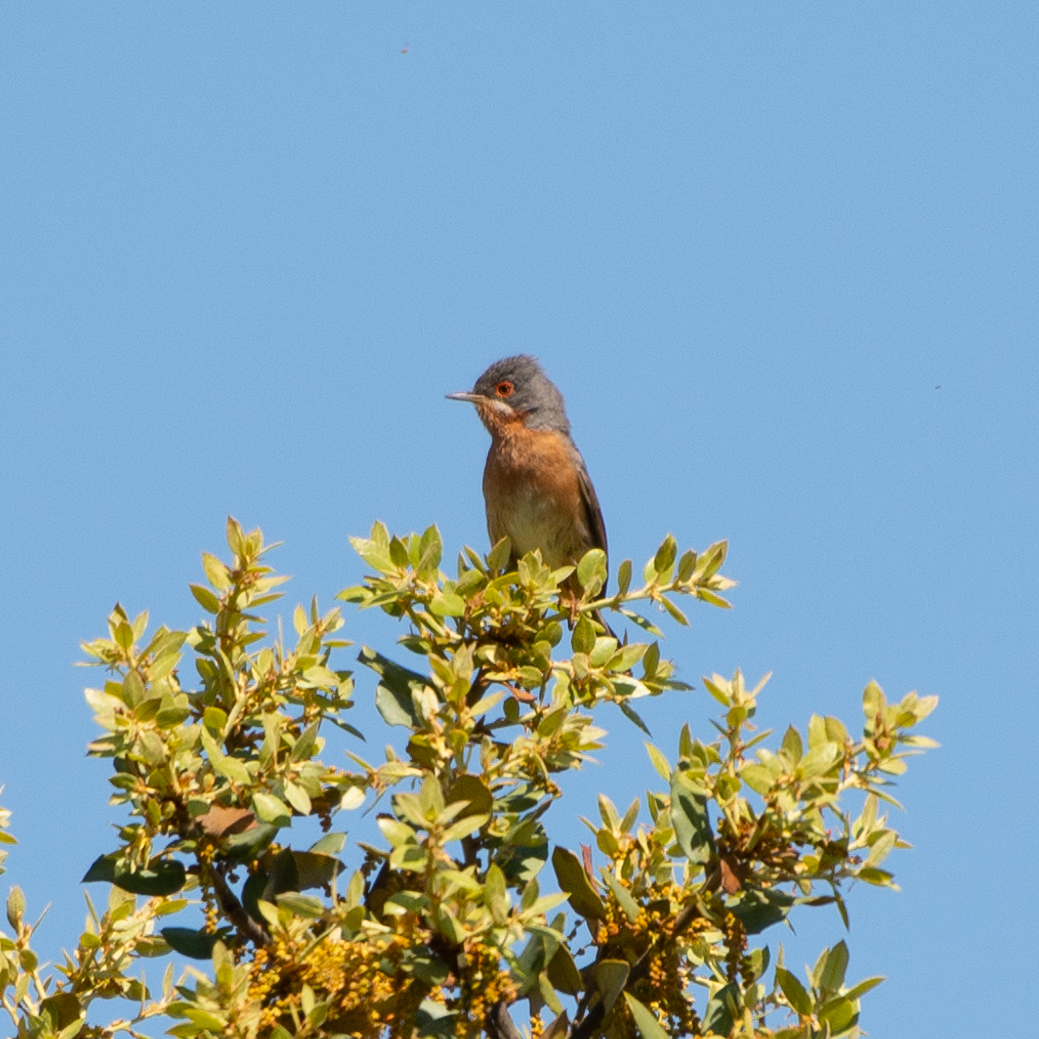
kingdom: Animalia
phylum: Chordata
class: Aves
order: Passeriformes
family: Sylviidae
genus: Curruca
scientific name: Curruca iberiae
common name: Western subalpine warbler
